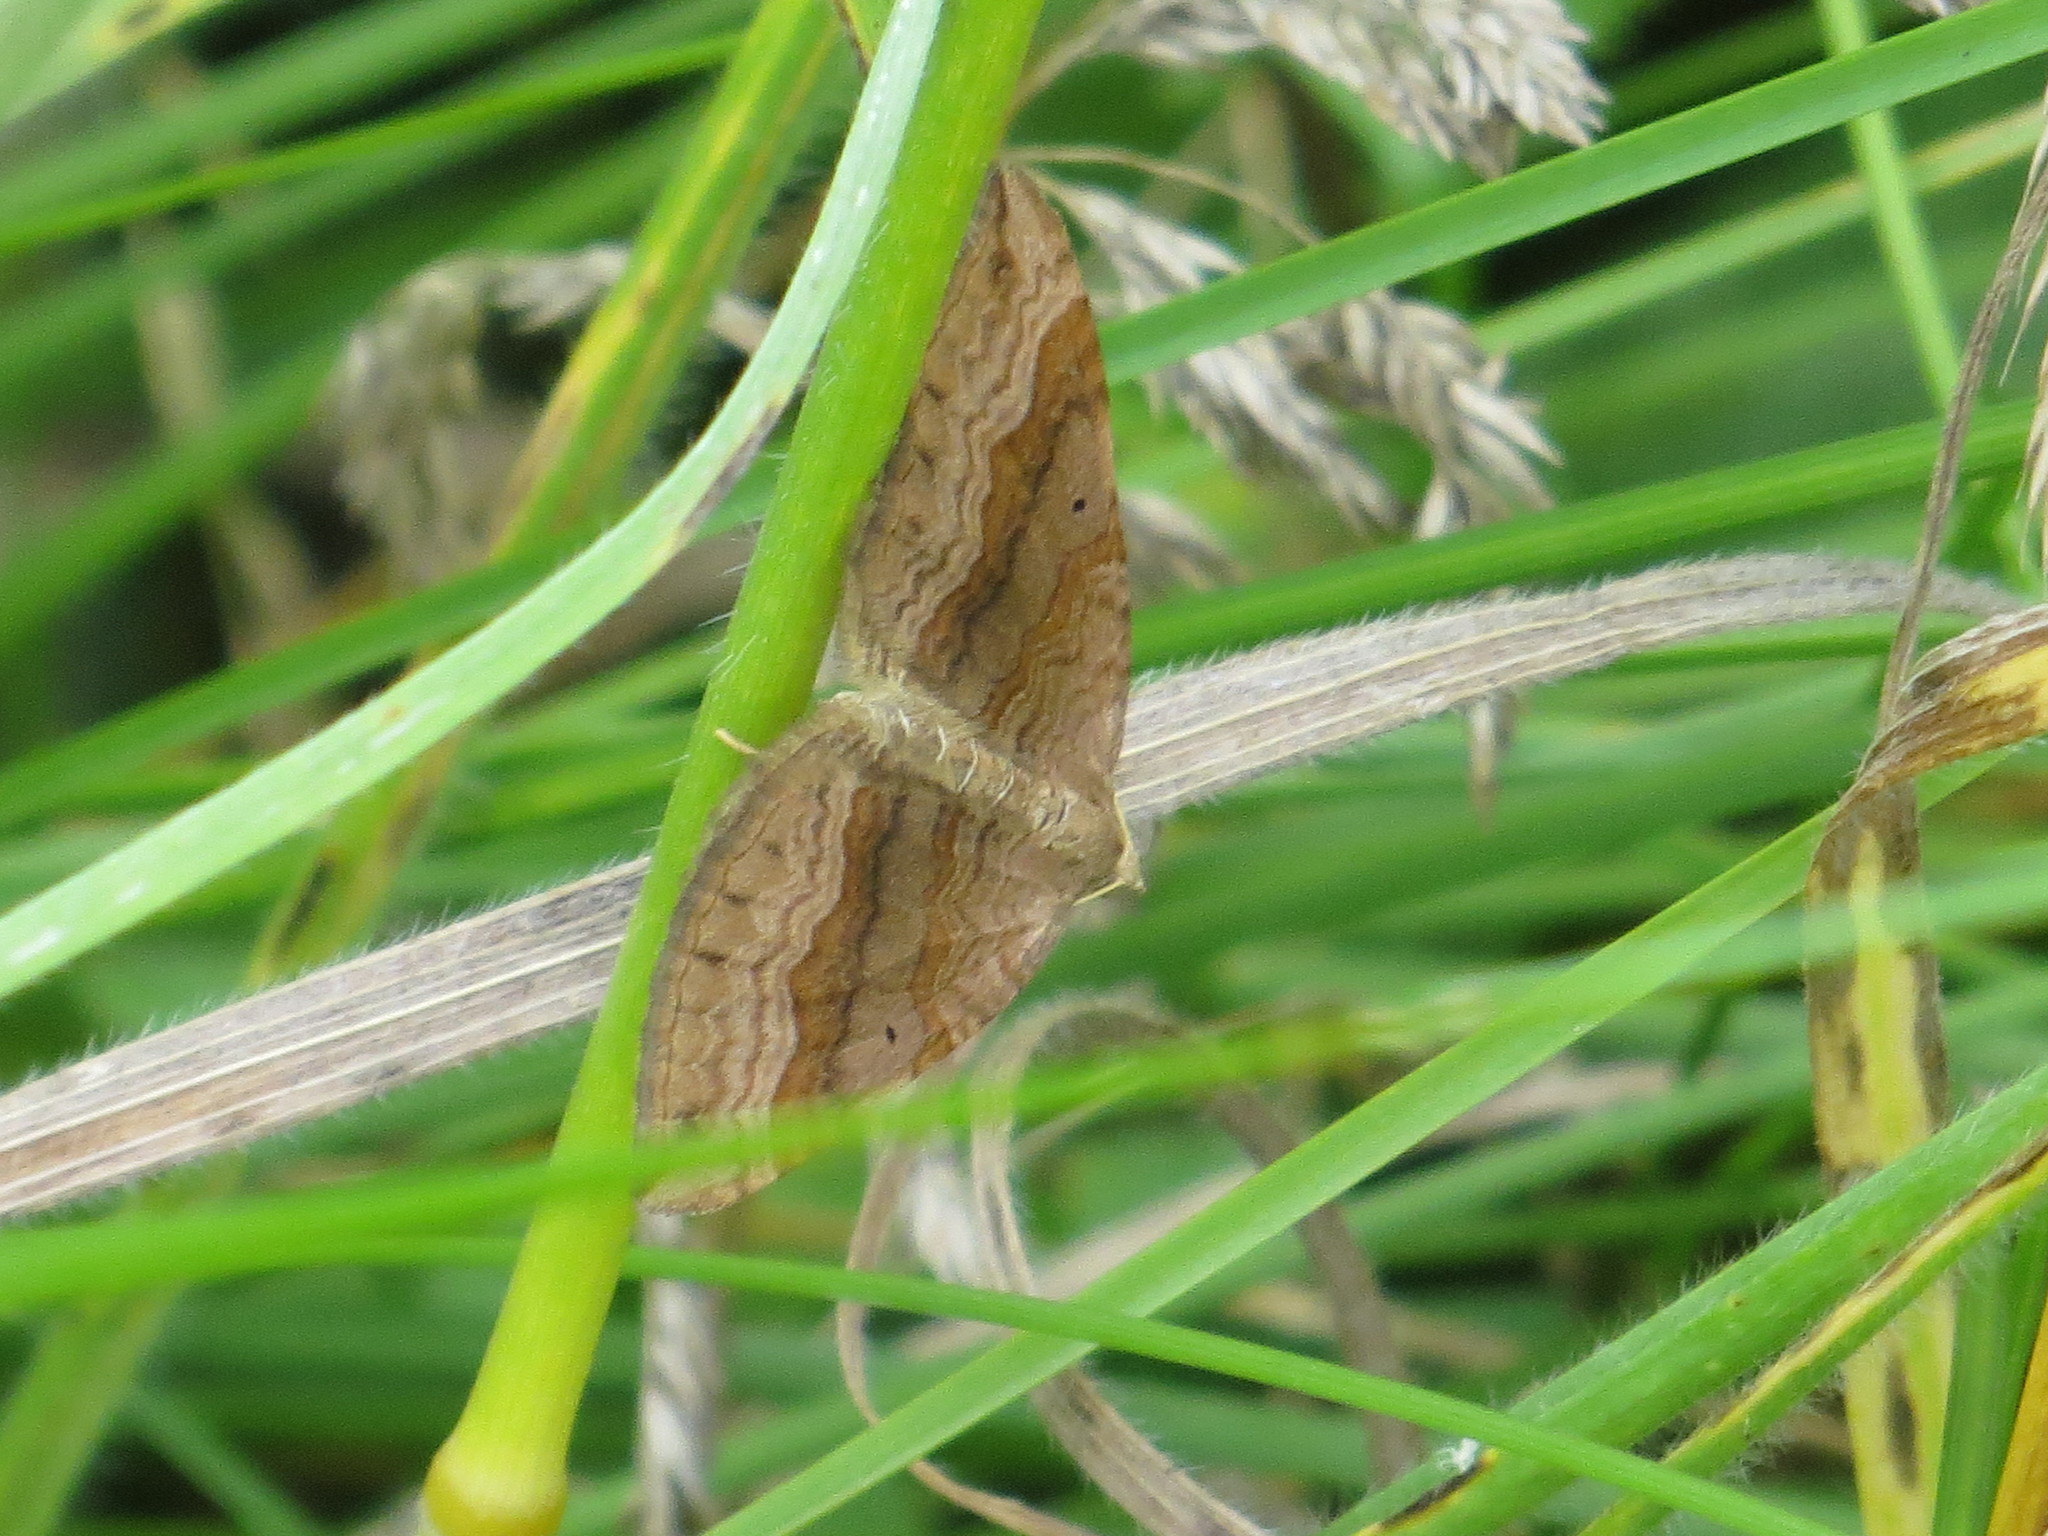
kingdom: Animalia
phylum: Arthropoda
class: Insecta
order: Lepidoptera
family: Geometridae
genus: Scotopteryx
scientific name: Scotopteryx chenopodiata
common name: Shaded broad-bar
